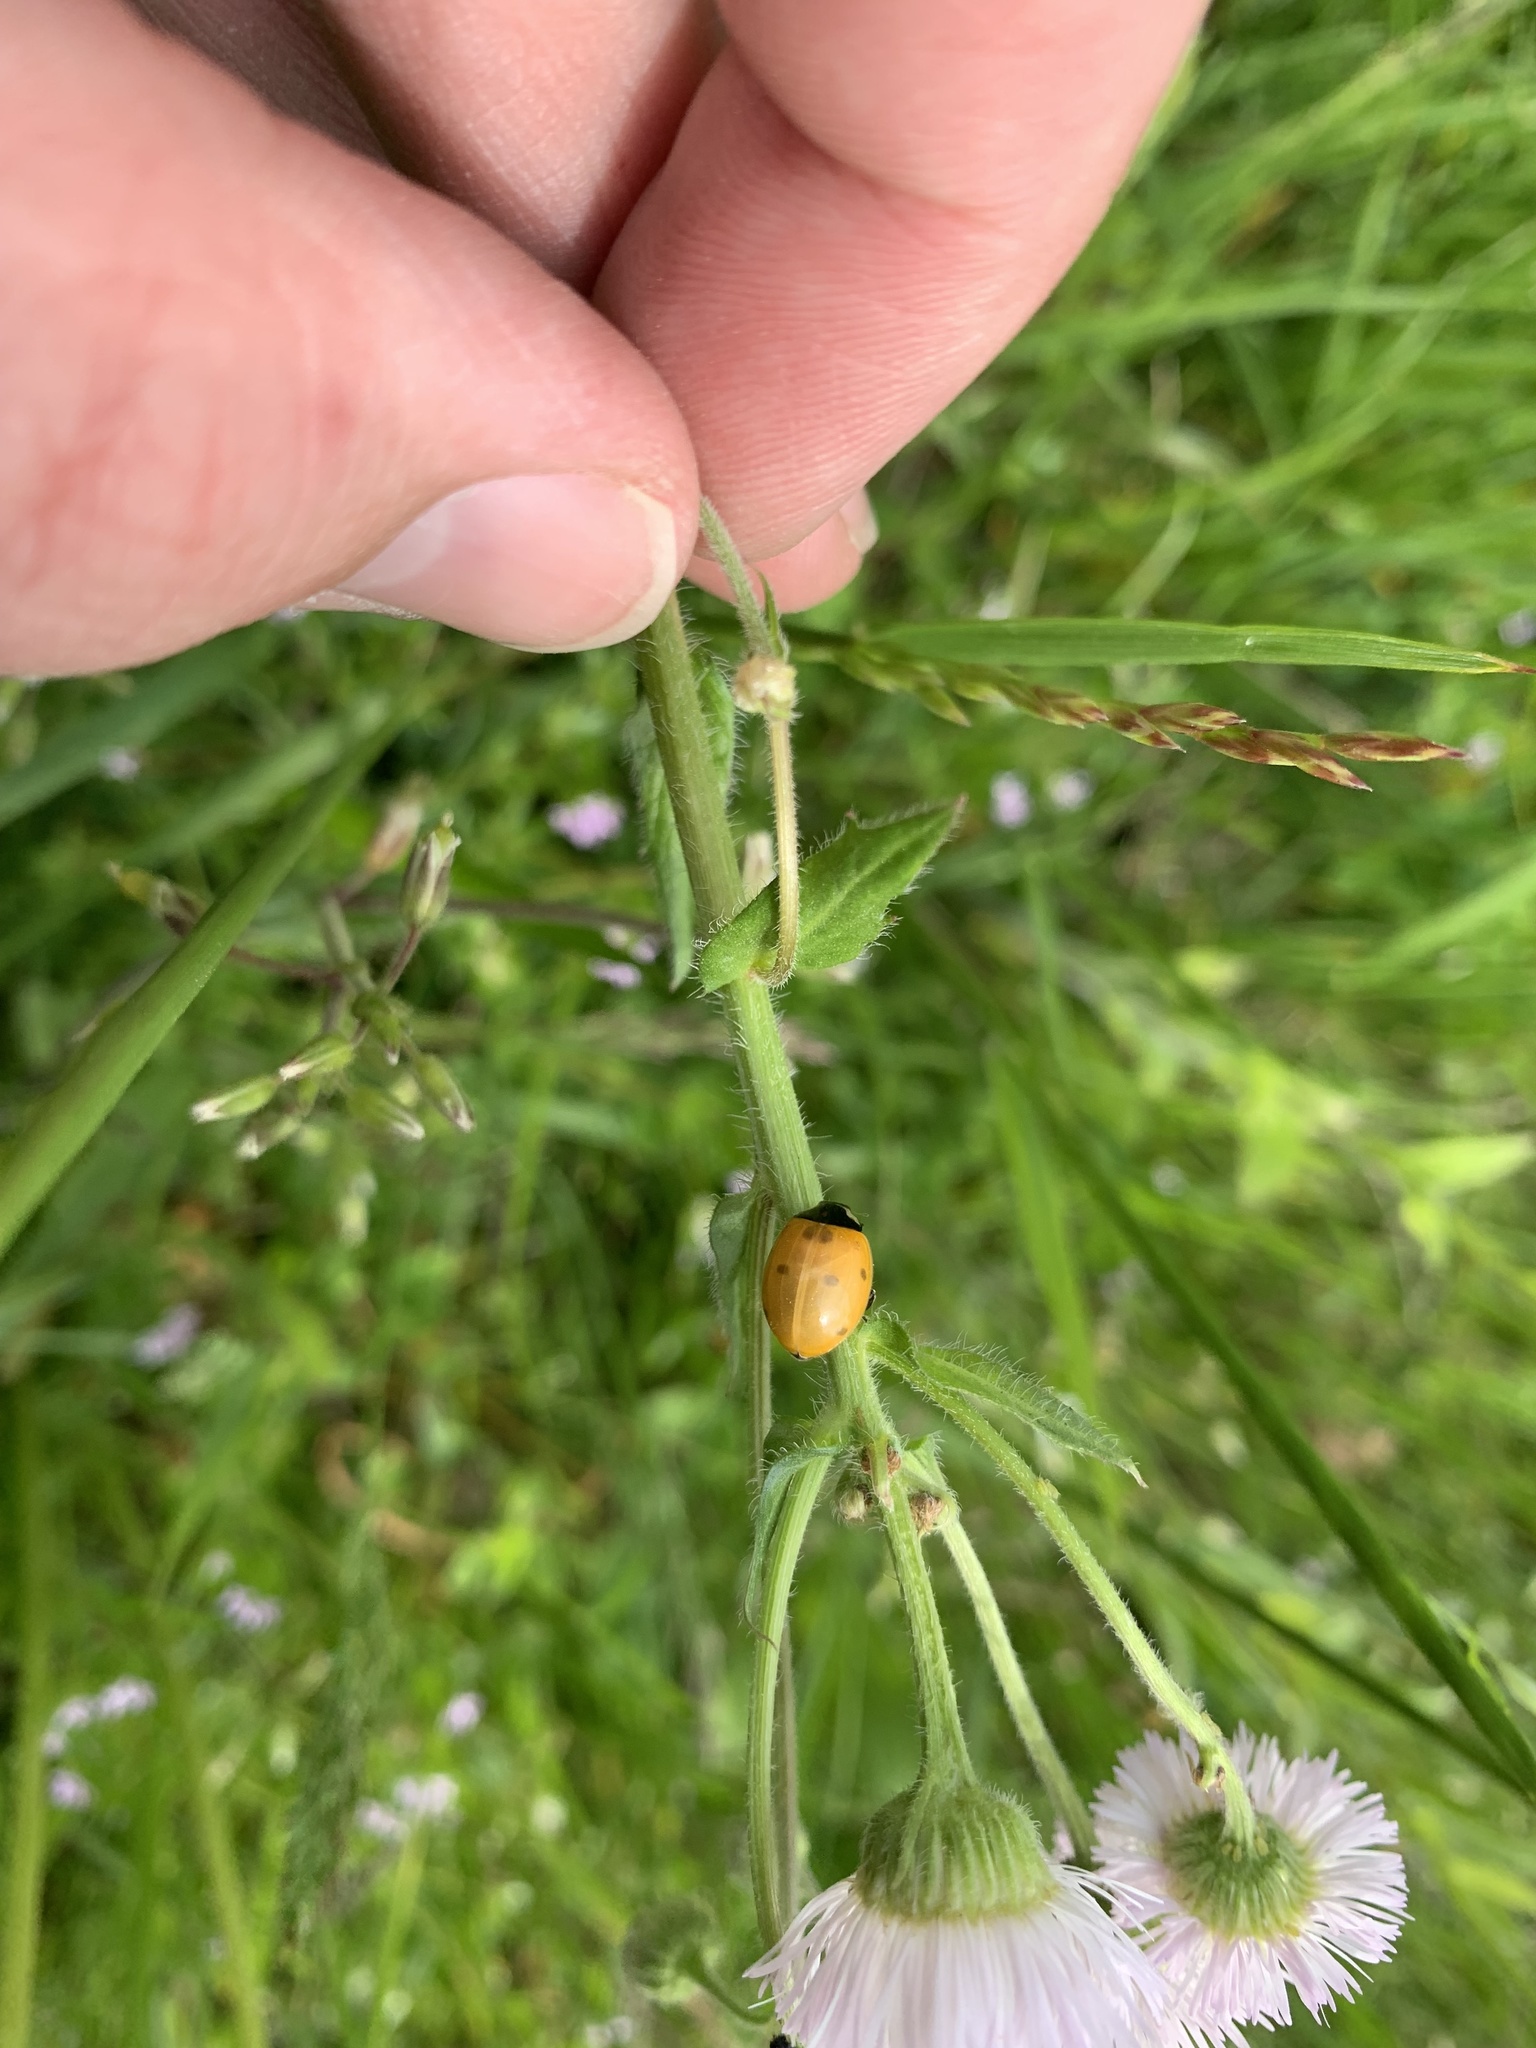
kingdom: Animalia
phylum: Arthropoda
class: Insecta
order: Coleoptera
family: Coccinellidae
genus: Coccinella
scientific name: Coccinella septempunctata
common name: Sevenspotted lady beetle
